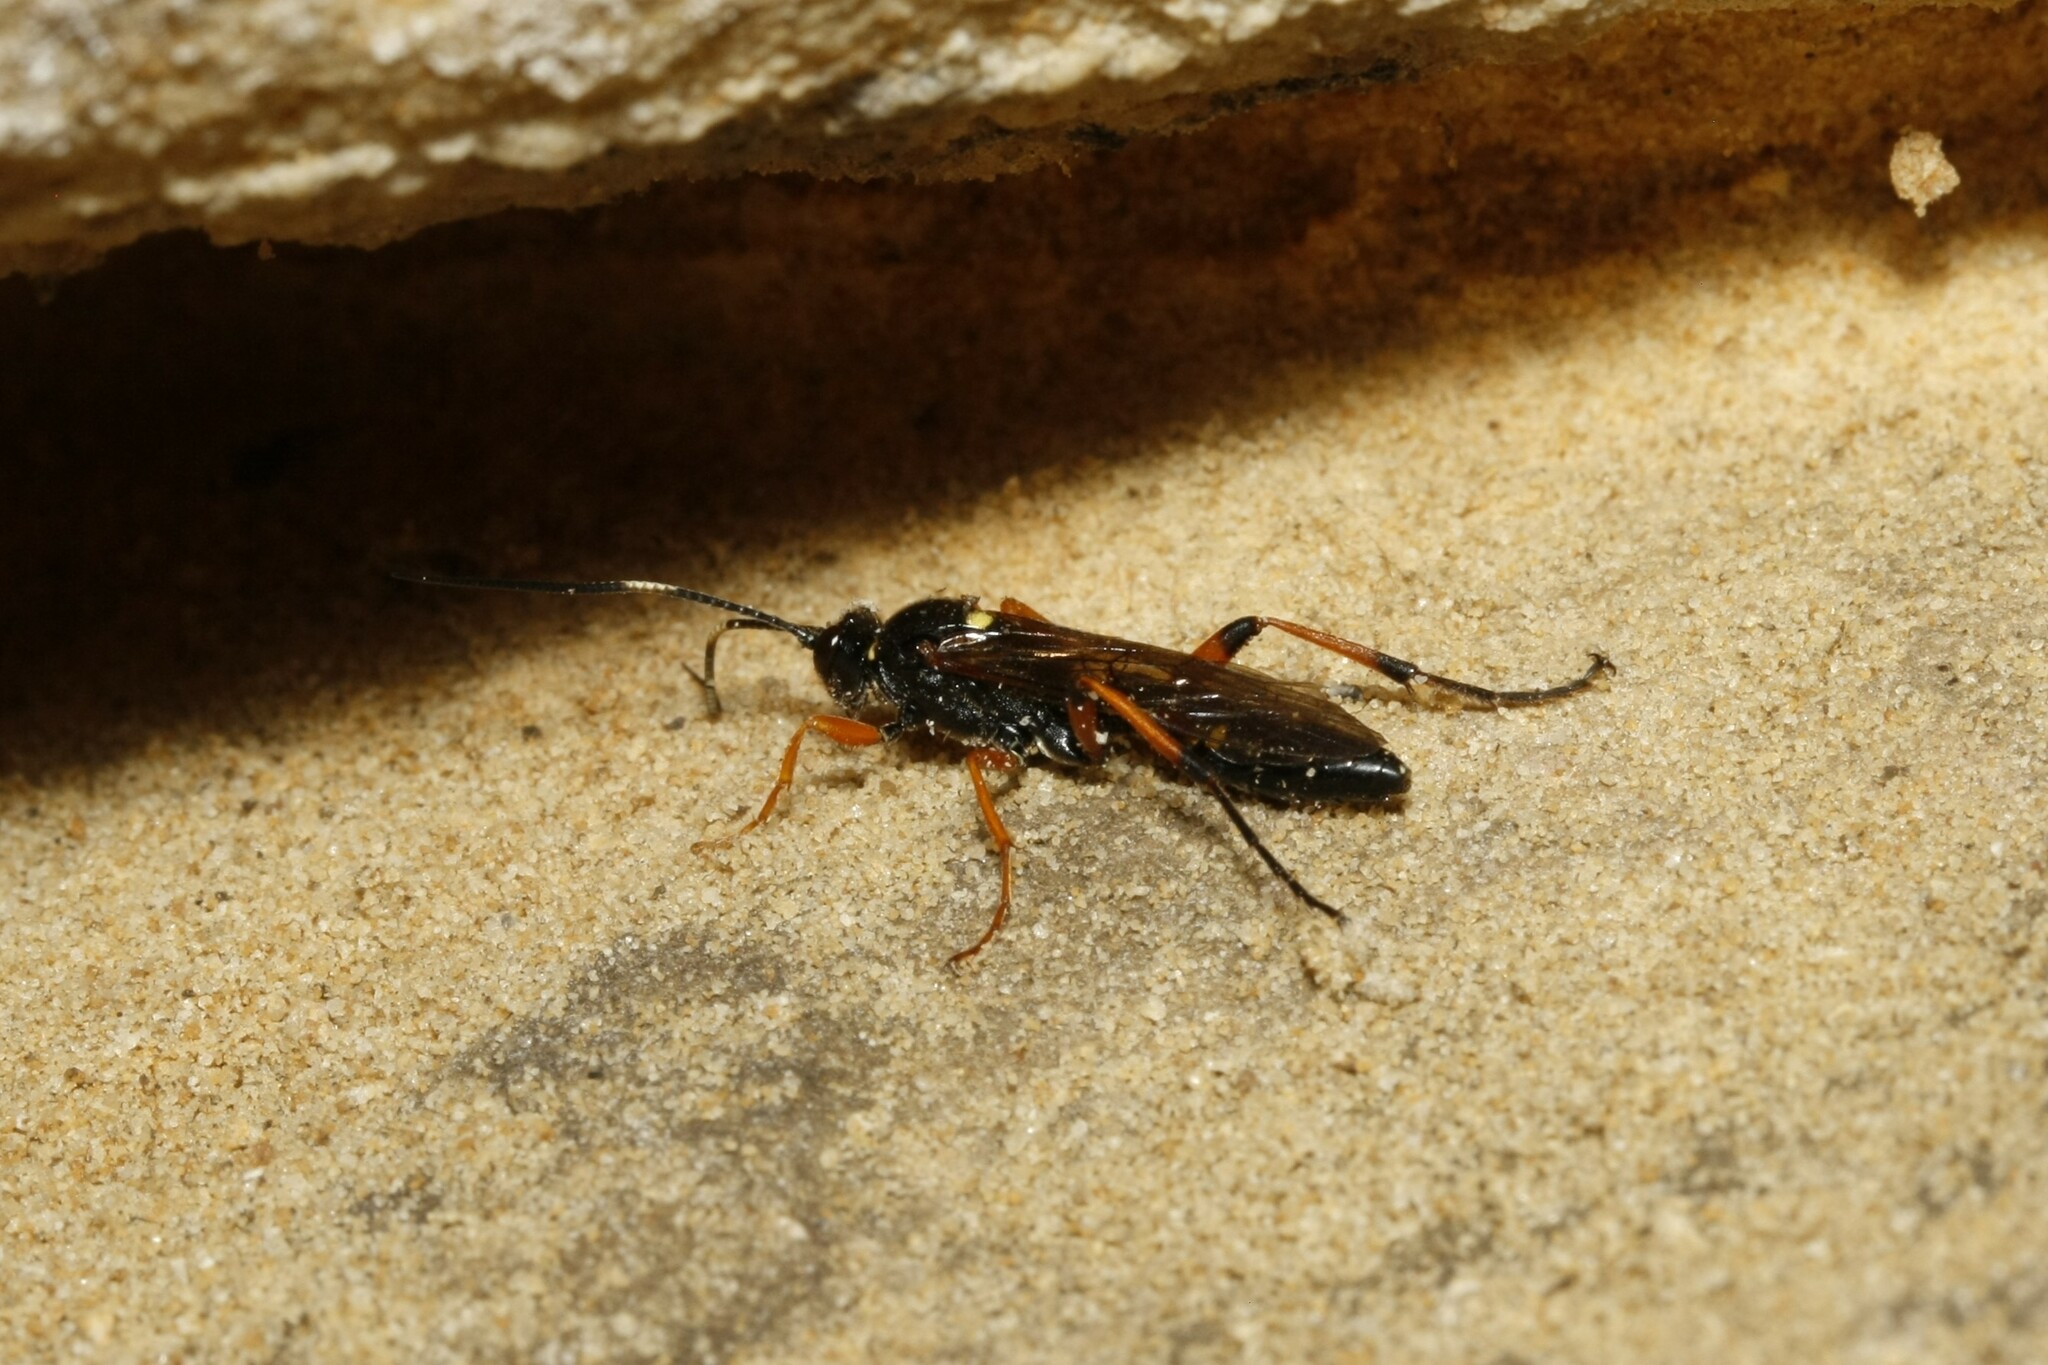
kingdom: Animalia
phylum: Arthropoda
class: Insecta
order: Hymenoptera
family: Ichneumonidae
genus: Diphyus
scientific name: Diphyus quadripunctorius
